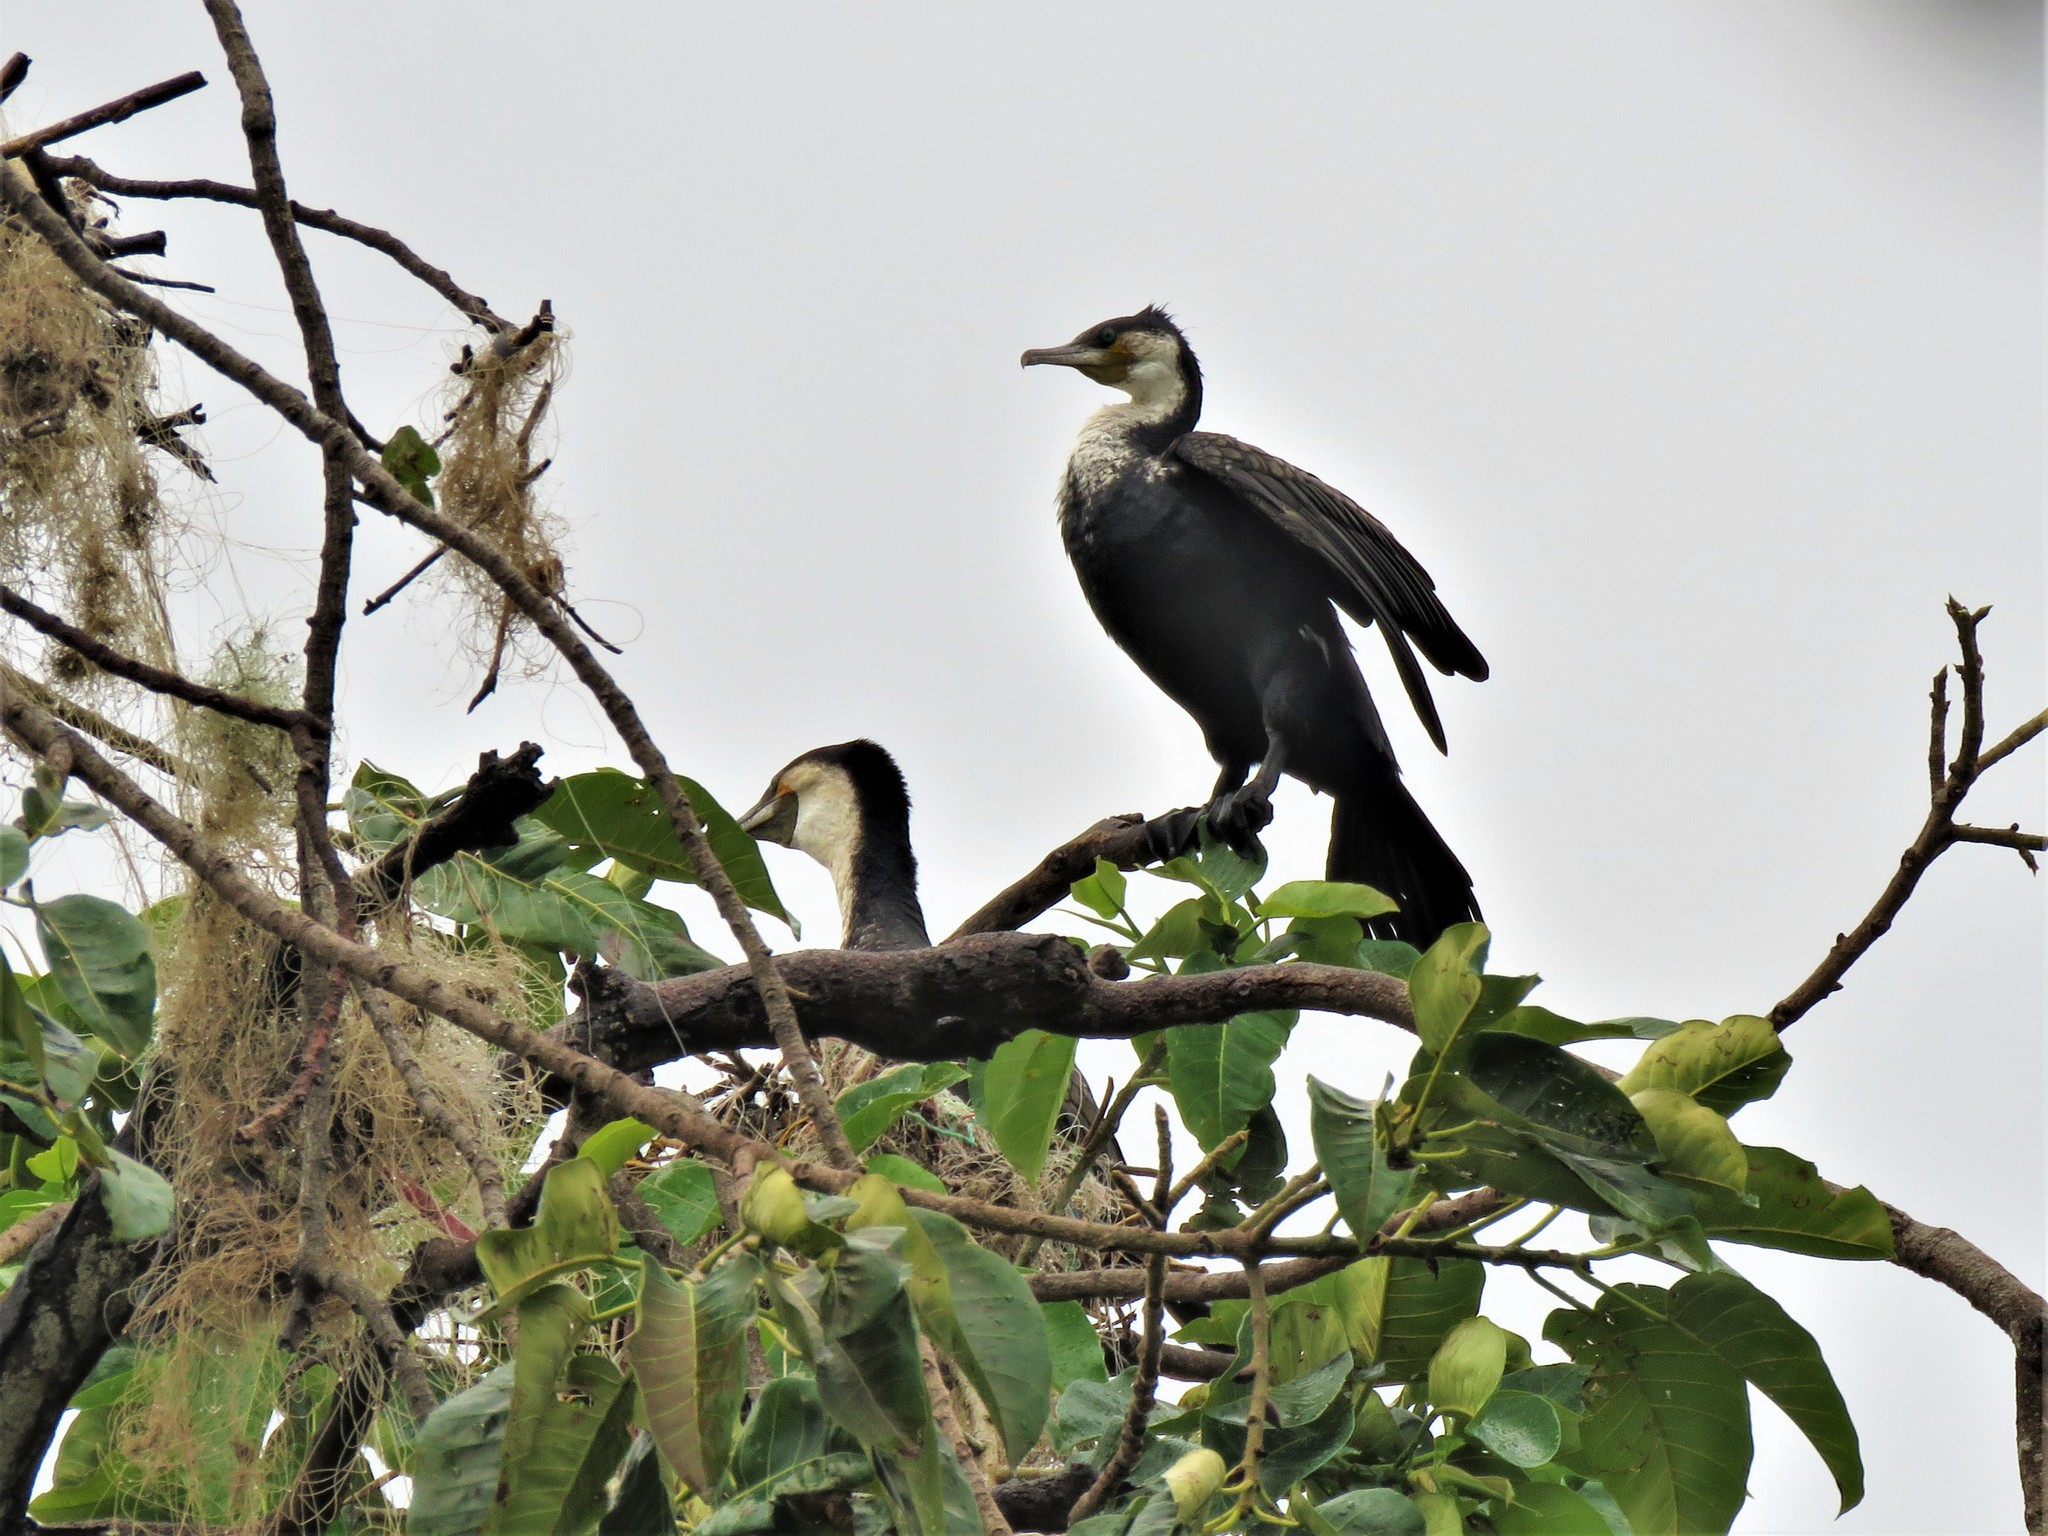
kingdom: Animalia
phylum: Chordata
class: Aves
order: Suliformes
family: Phalacrocoracidae
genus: Phalacrocorax
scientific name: Phalacrocorax carbo
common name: Great cormorant
